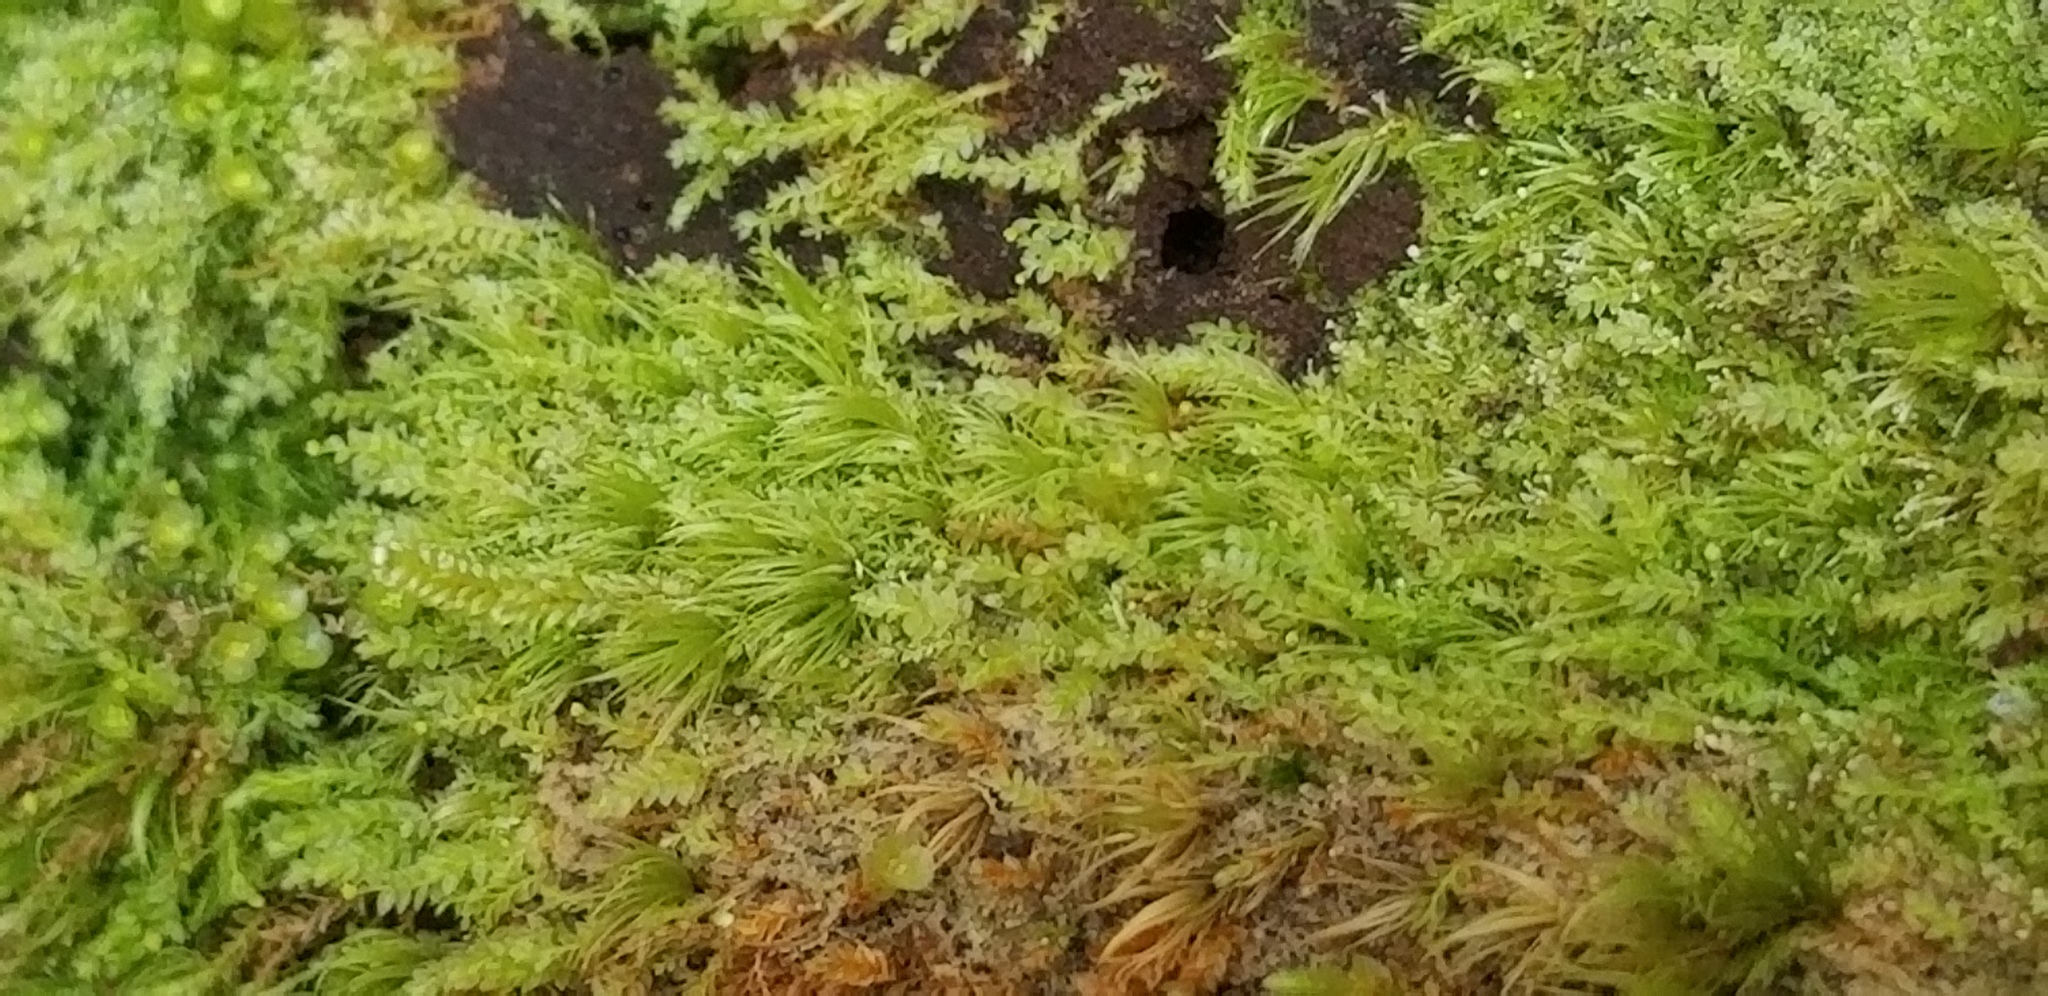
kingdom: Plantae
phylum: Bryophyta
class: Polytrichopsida
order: Tetraphidales
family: Tetraphidaceae
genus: Tetraphis
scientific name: Tetraphis pellucida
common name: Common four-toothed moss
